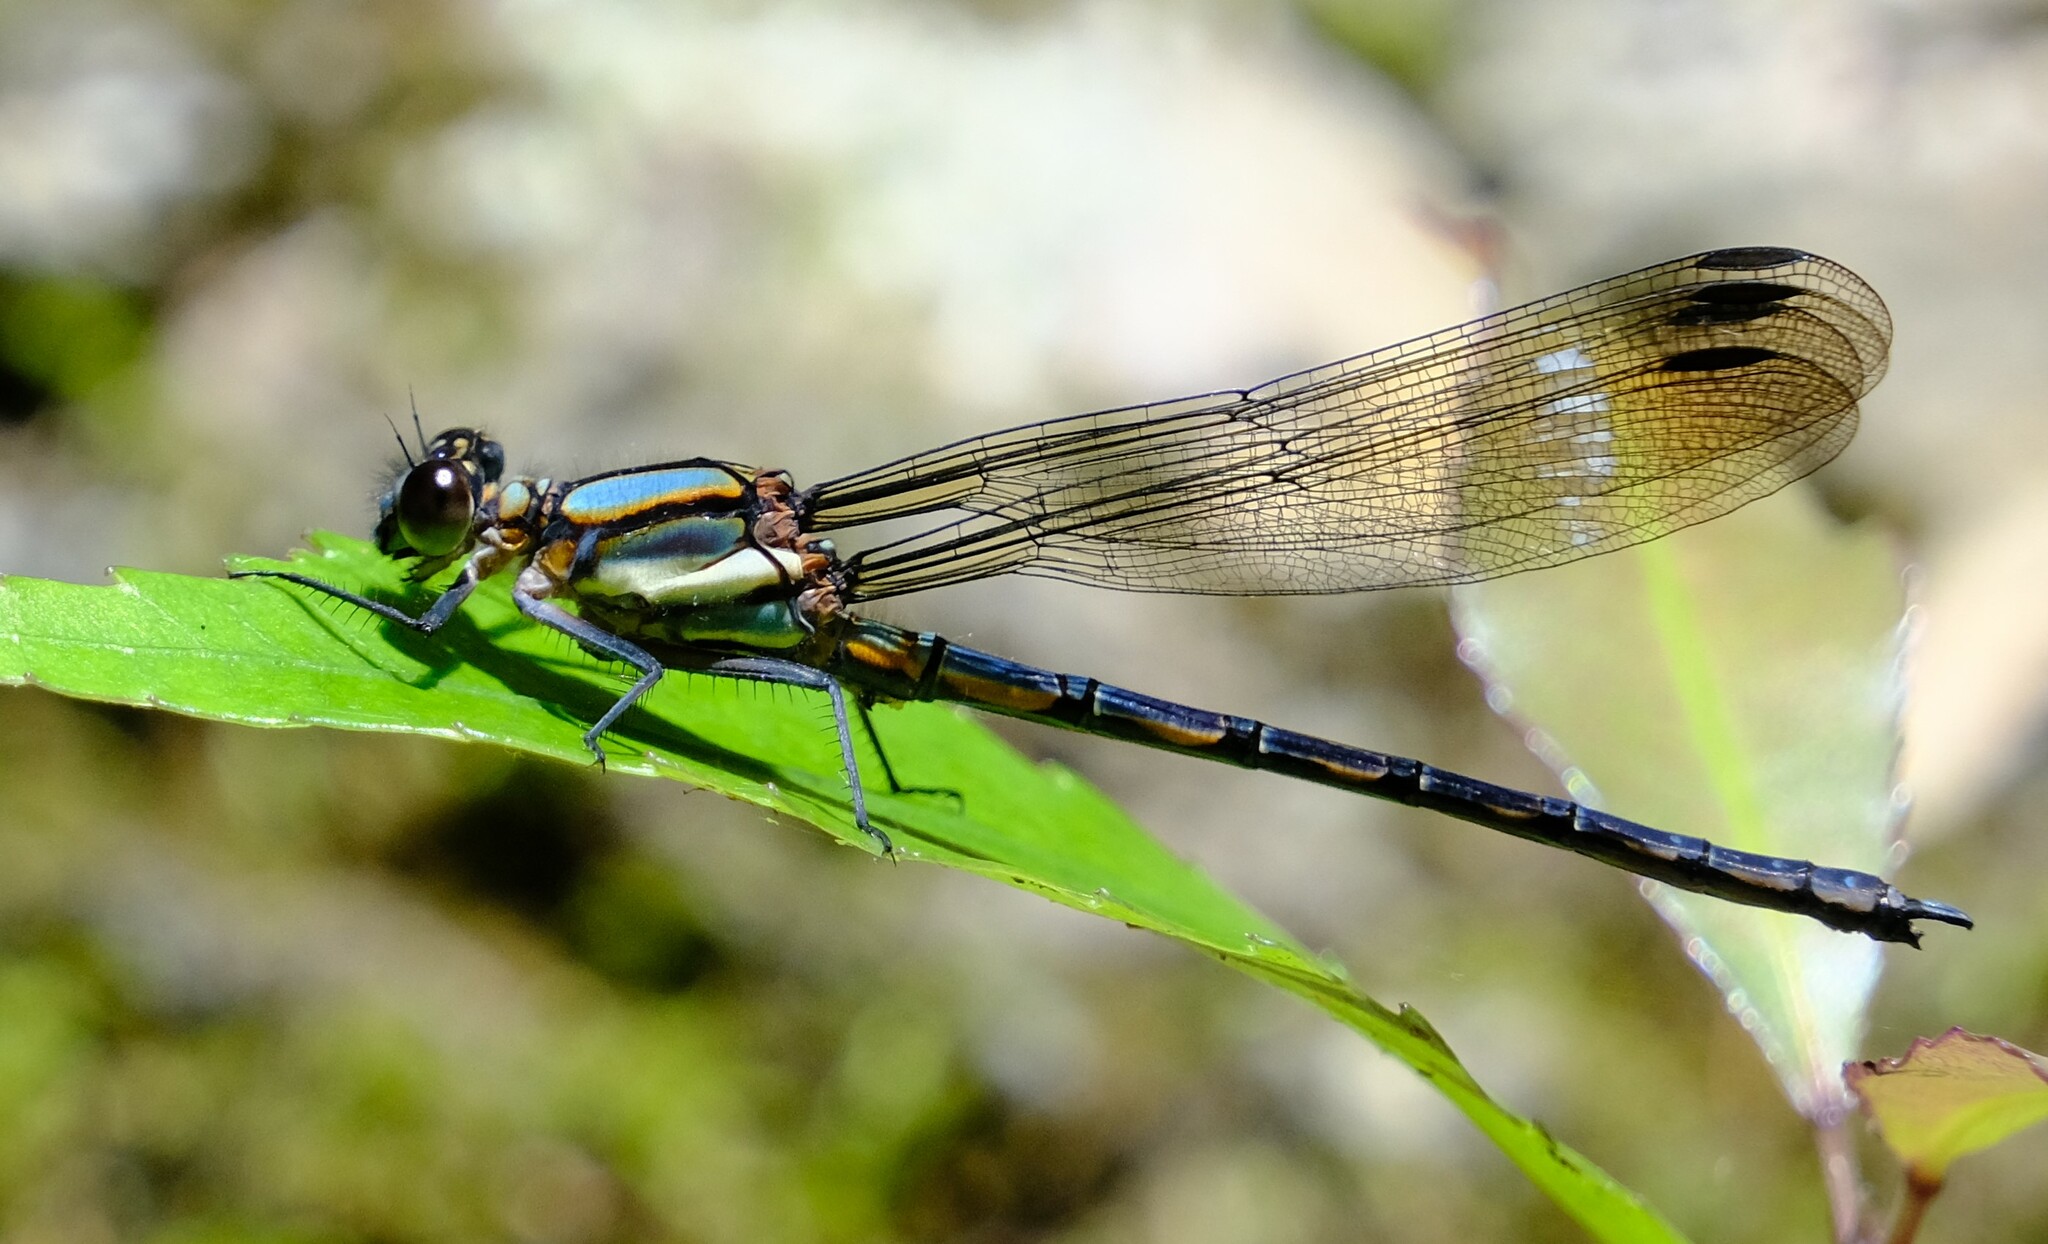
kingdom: Animalia
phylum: Arthropoda
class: Insecta
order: Odonata
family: Lestoideidae
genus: Diphlebia
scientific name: Diphlebia lestoides
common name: Whitewater rockmaster
